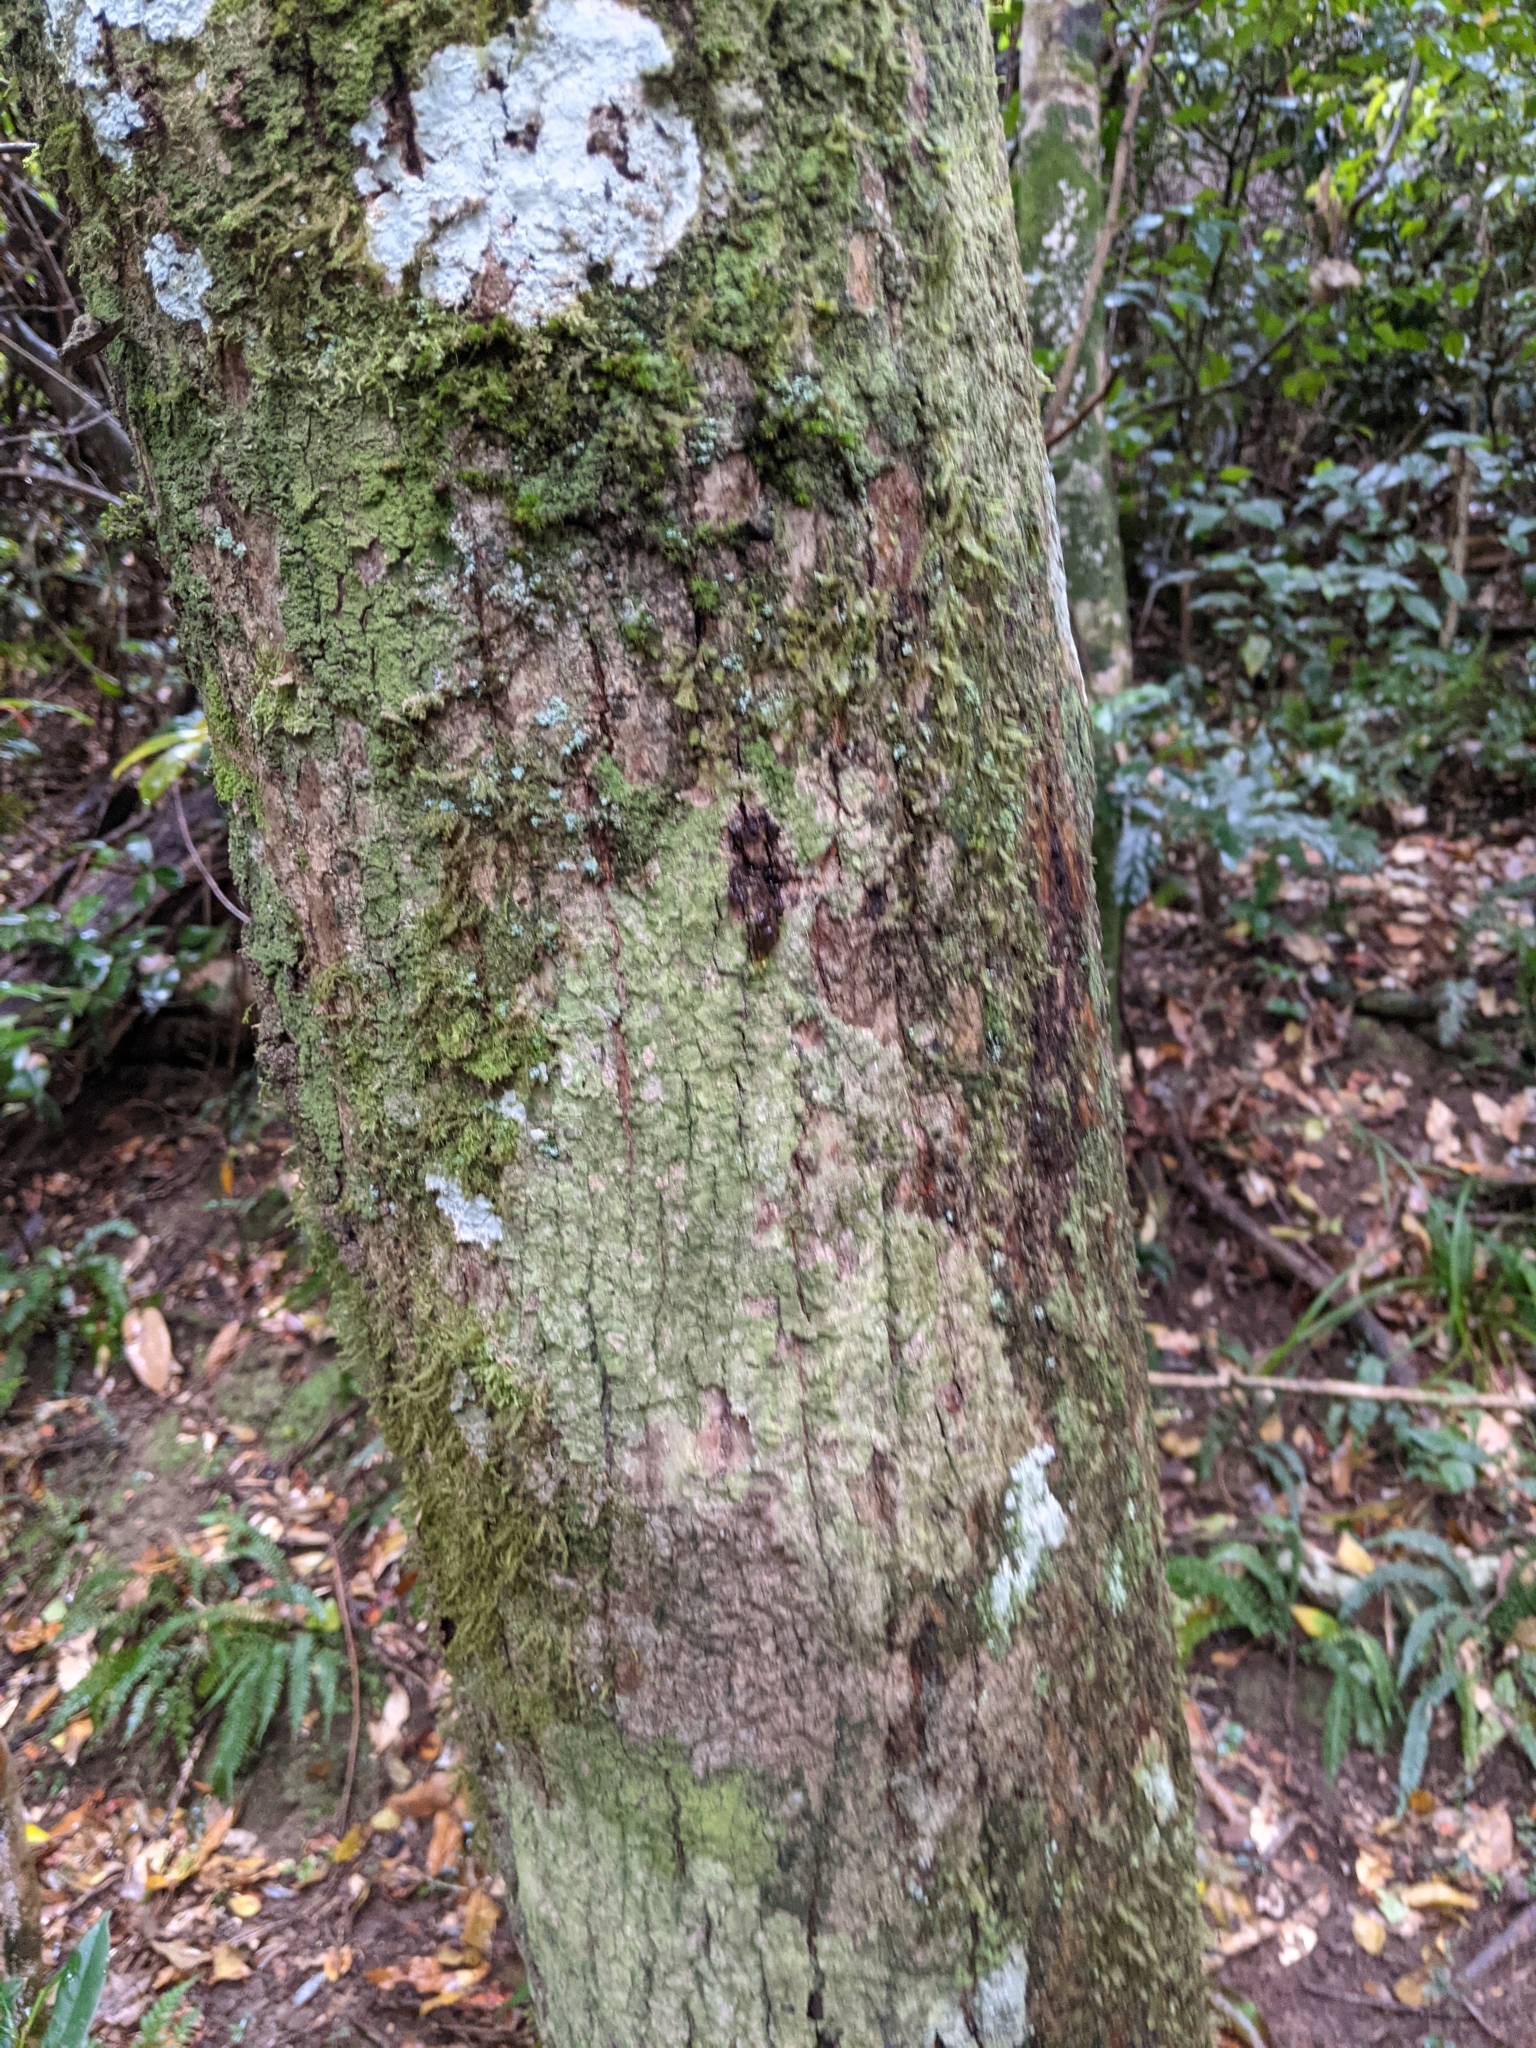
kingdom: Plantae
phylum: Tracheophyta
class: Magnoliopsida
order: Myrtales
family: Myrtaceae
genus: Backhousia
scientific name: Backhousia myrtifolia
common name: Carrol
